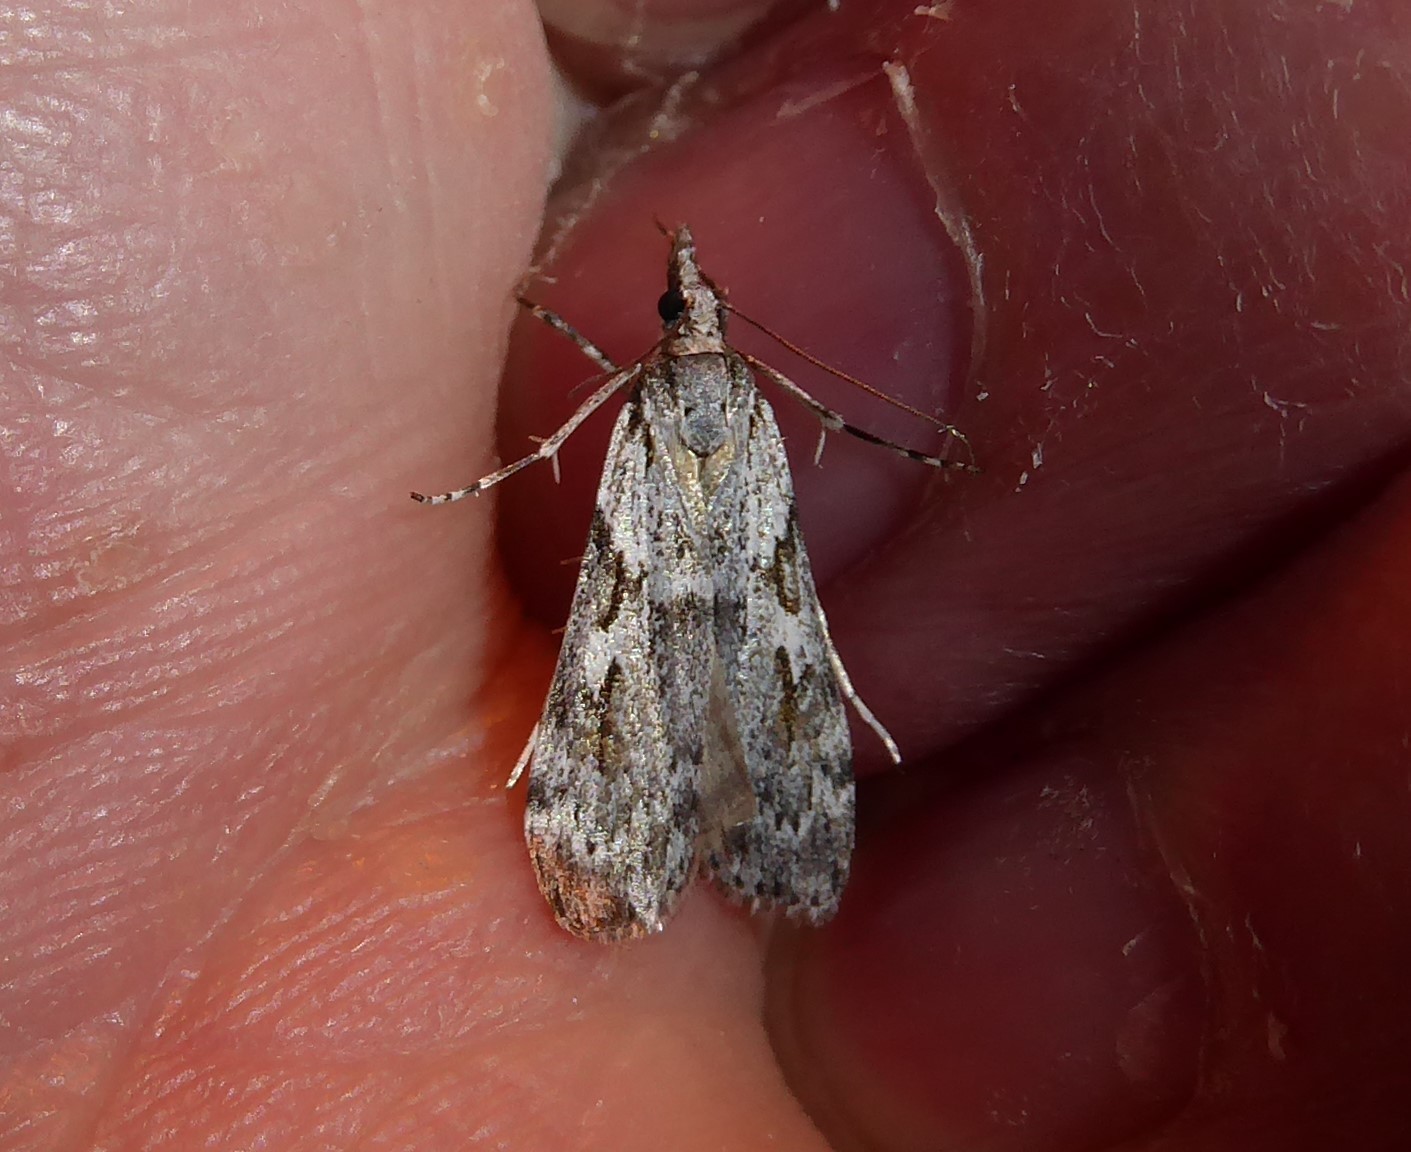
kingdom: Animalia
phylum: Arthropoda
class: Insecta
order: Lepidoptera
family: Crambidae
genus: Scoparia
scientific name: Scoparia halopis
